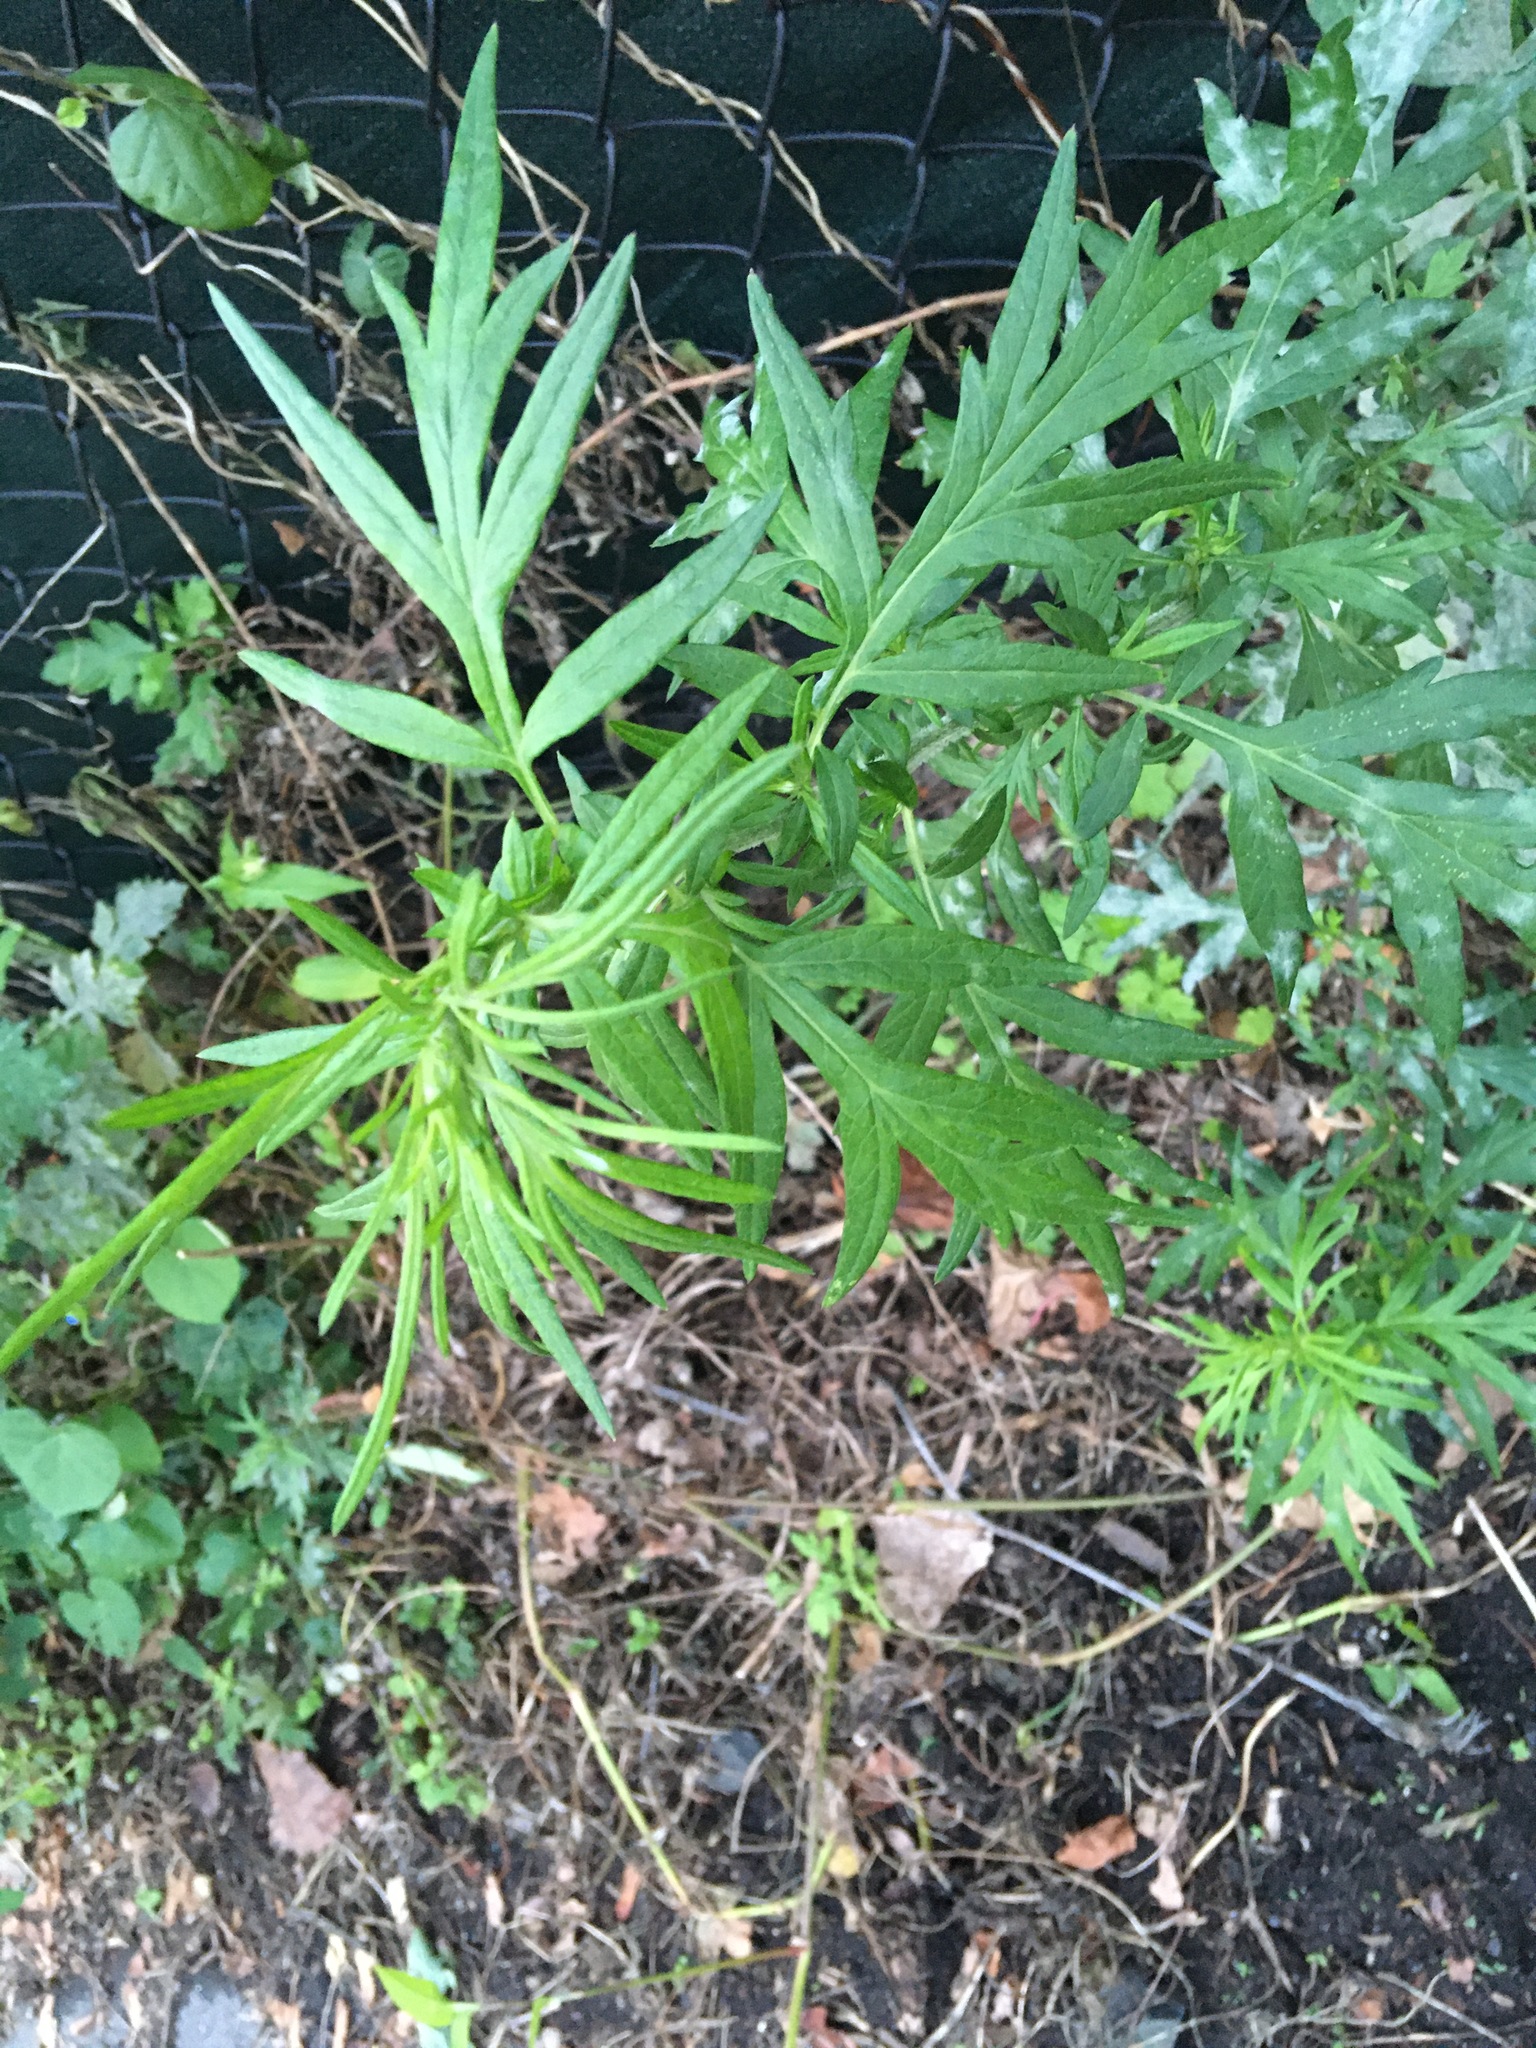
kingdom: Plantae
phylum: Tracheophyta
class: Magnoliopsida
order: Asterales
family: Asteraceae
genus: Artemisia
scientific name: Artemisia vulgaris
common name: Mugwort
